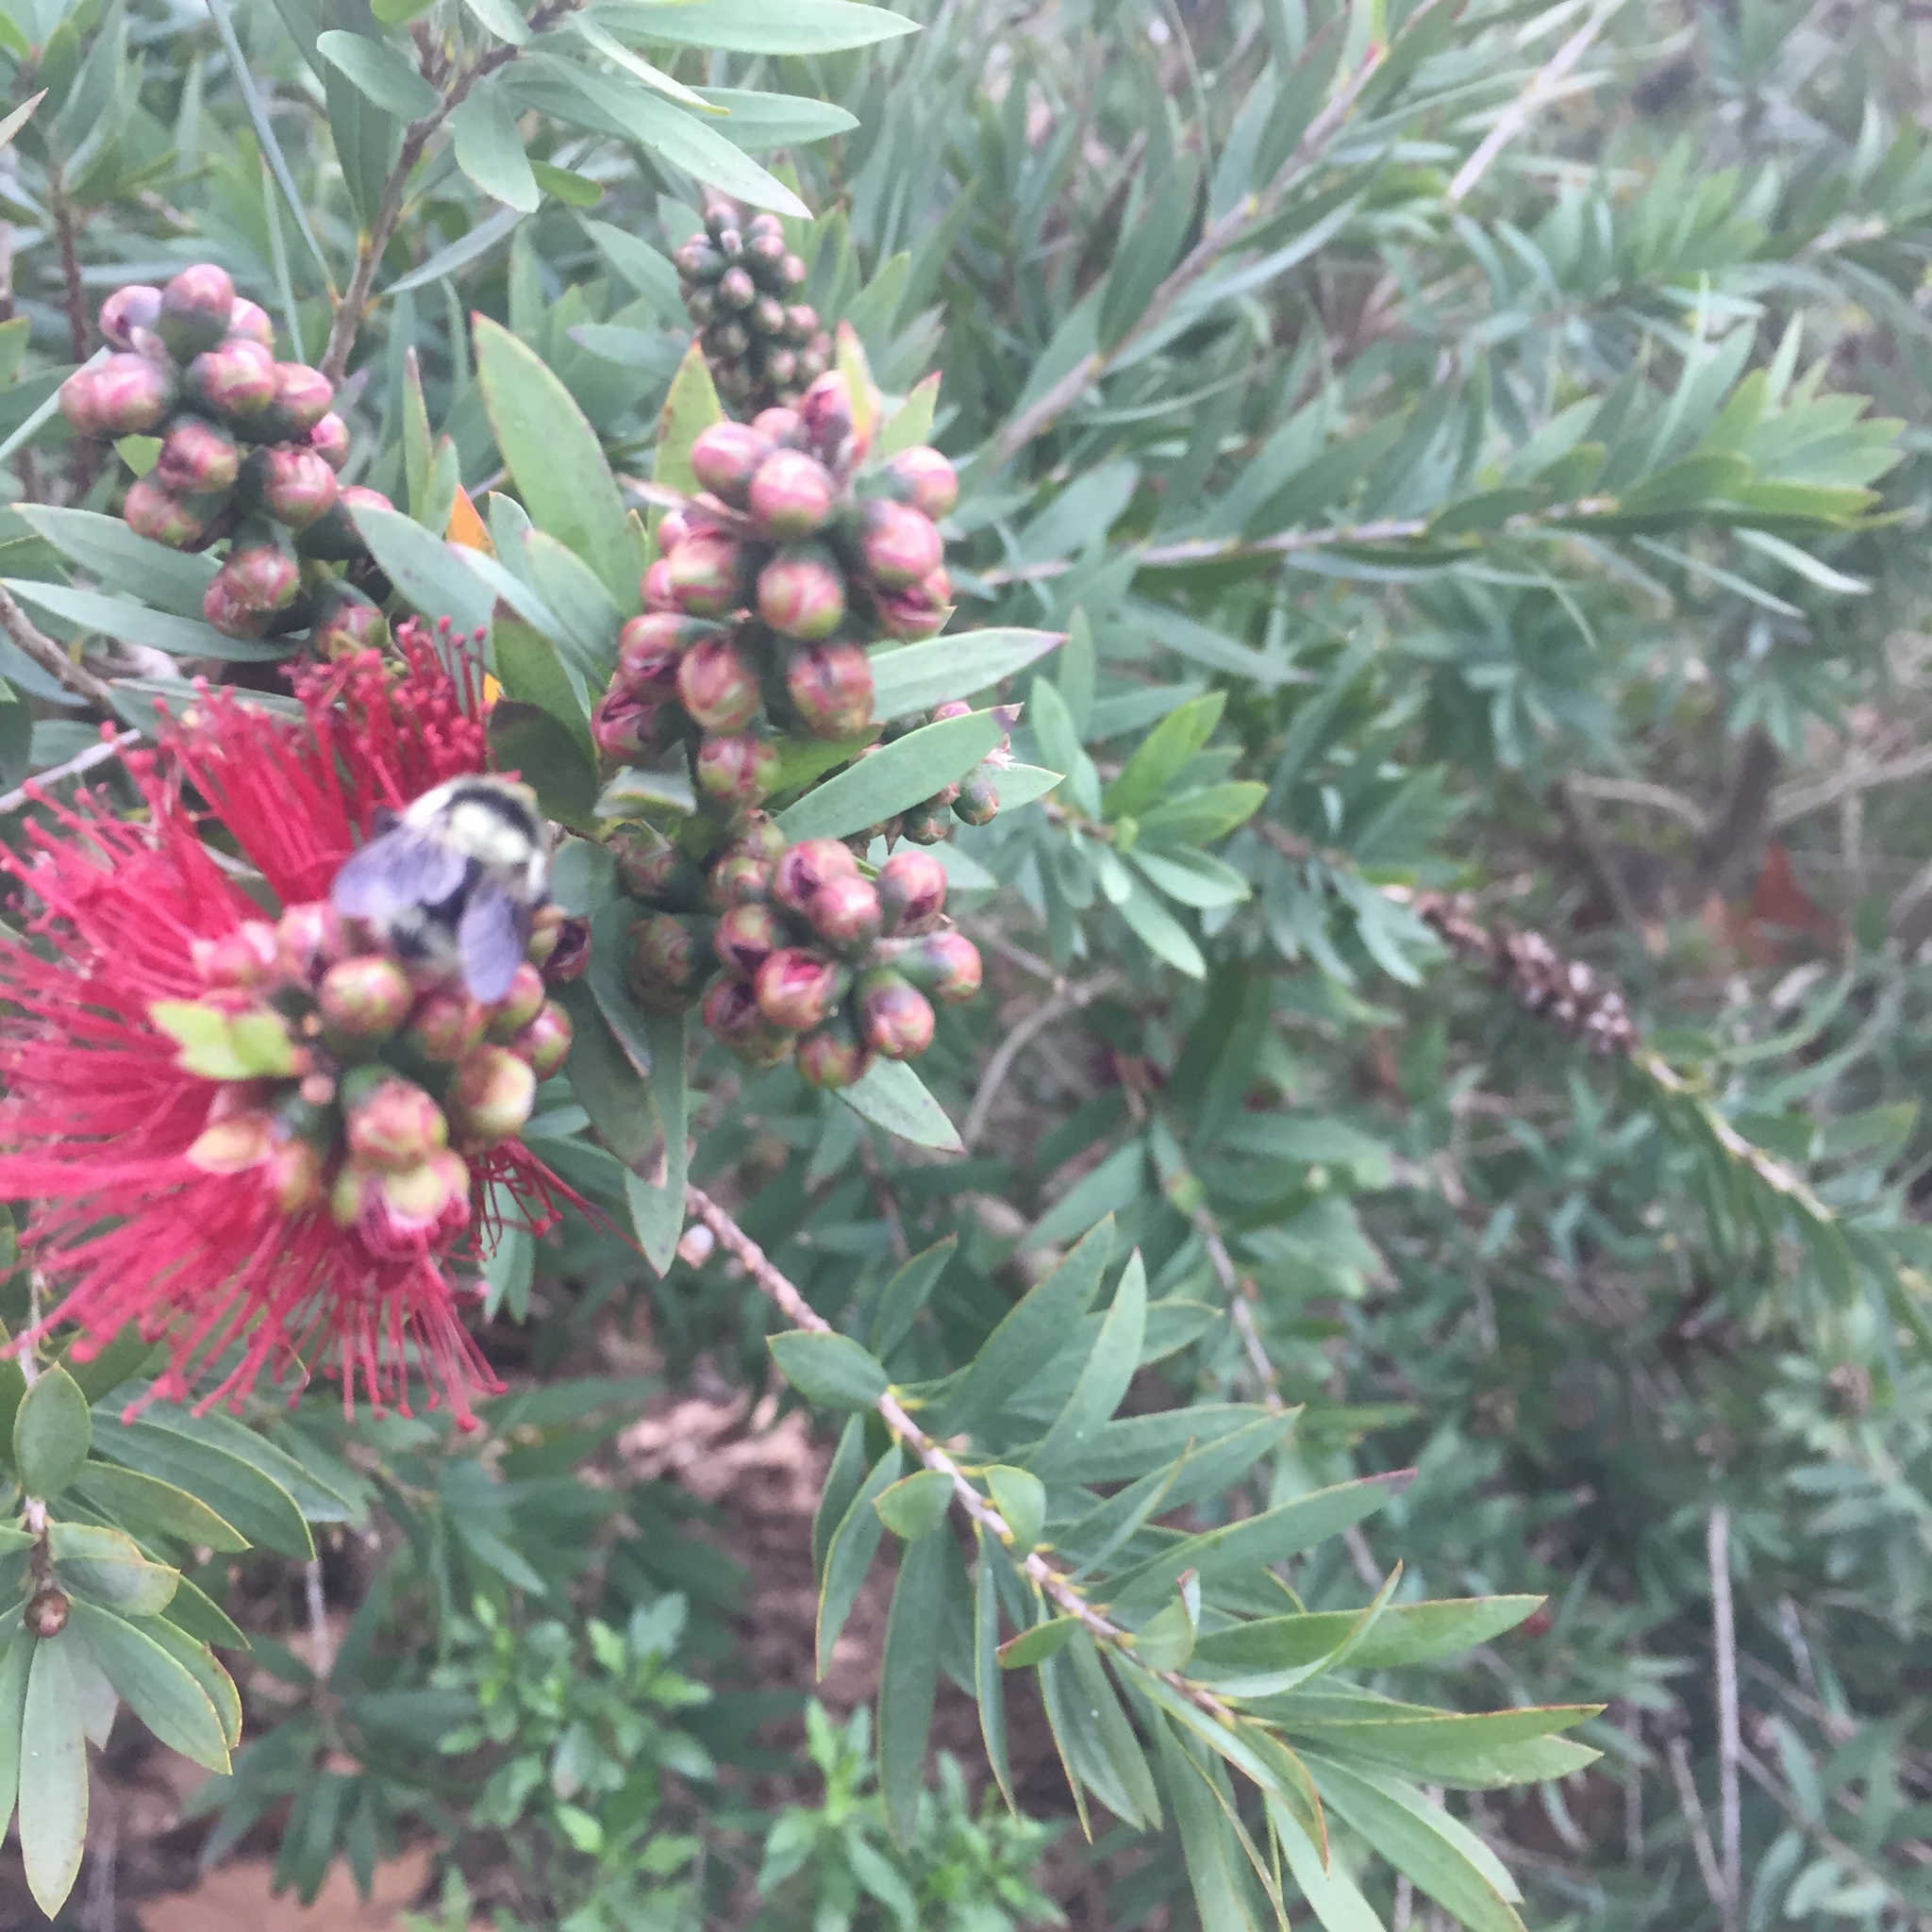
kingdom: Animalia
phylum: Arthropoda
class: Insecta
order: Hymenoptera
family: Apidae
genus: Bombus
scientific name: Bombus melanopygus
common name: Black tail bumble bee
